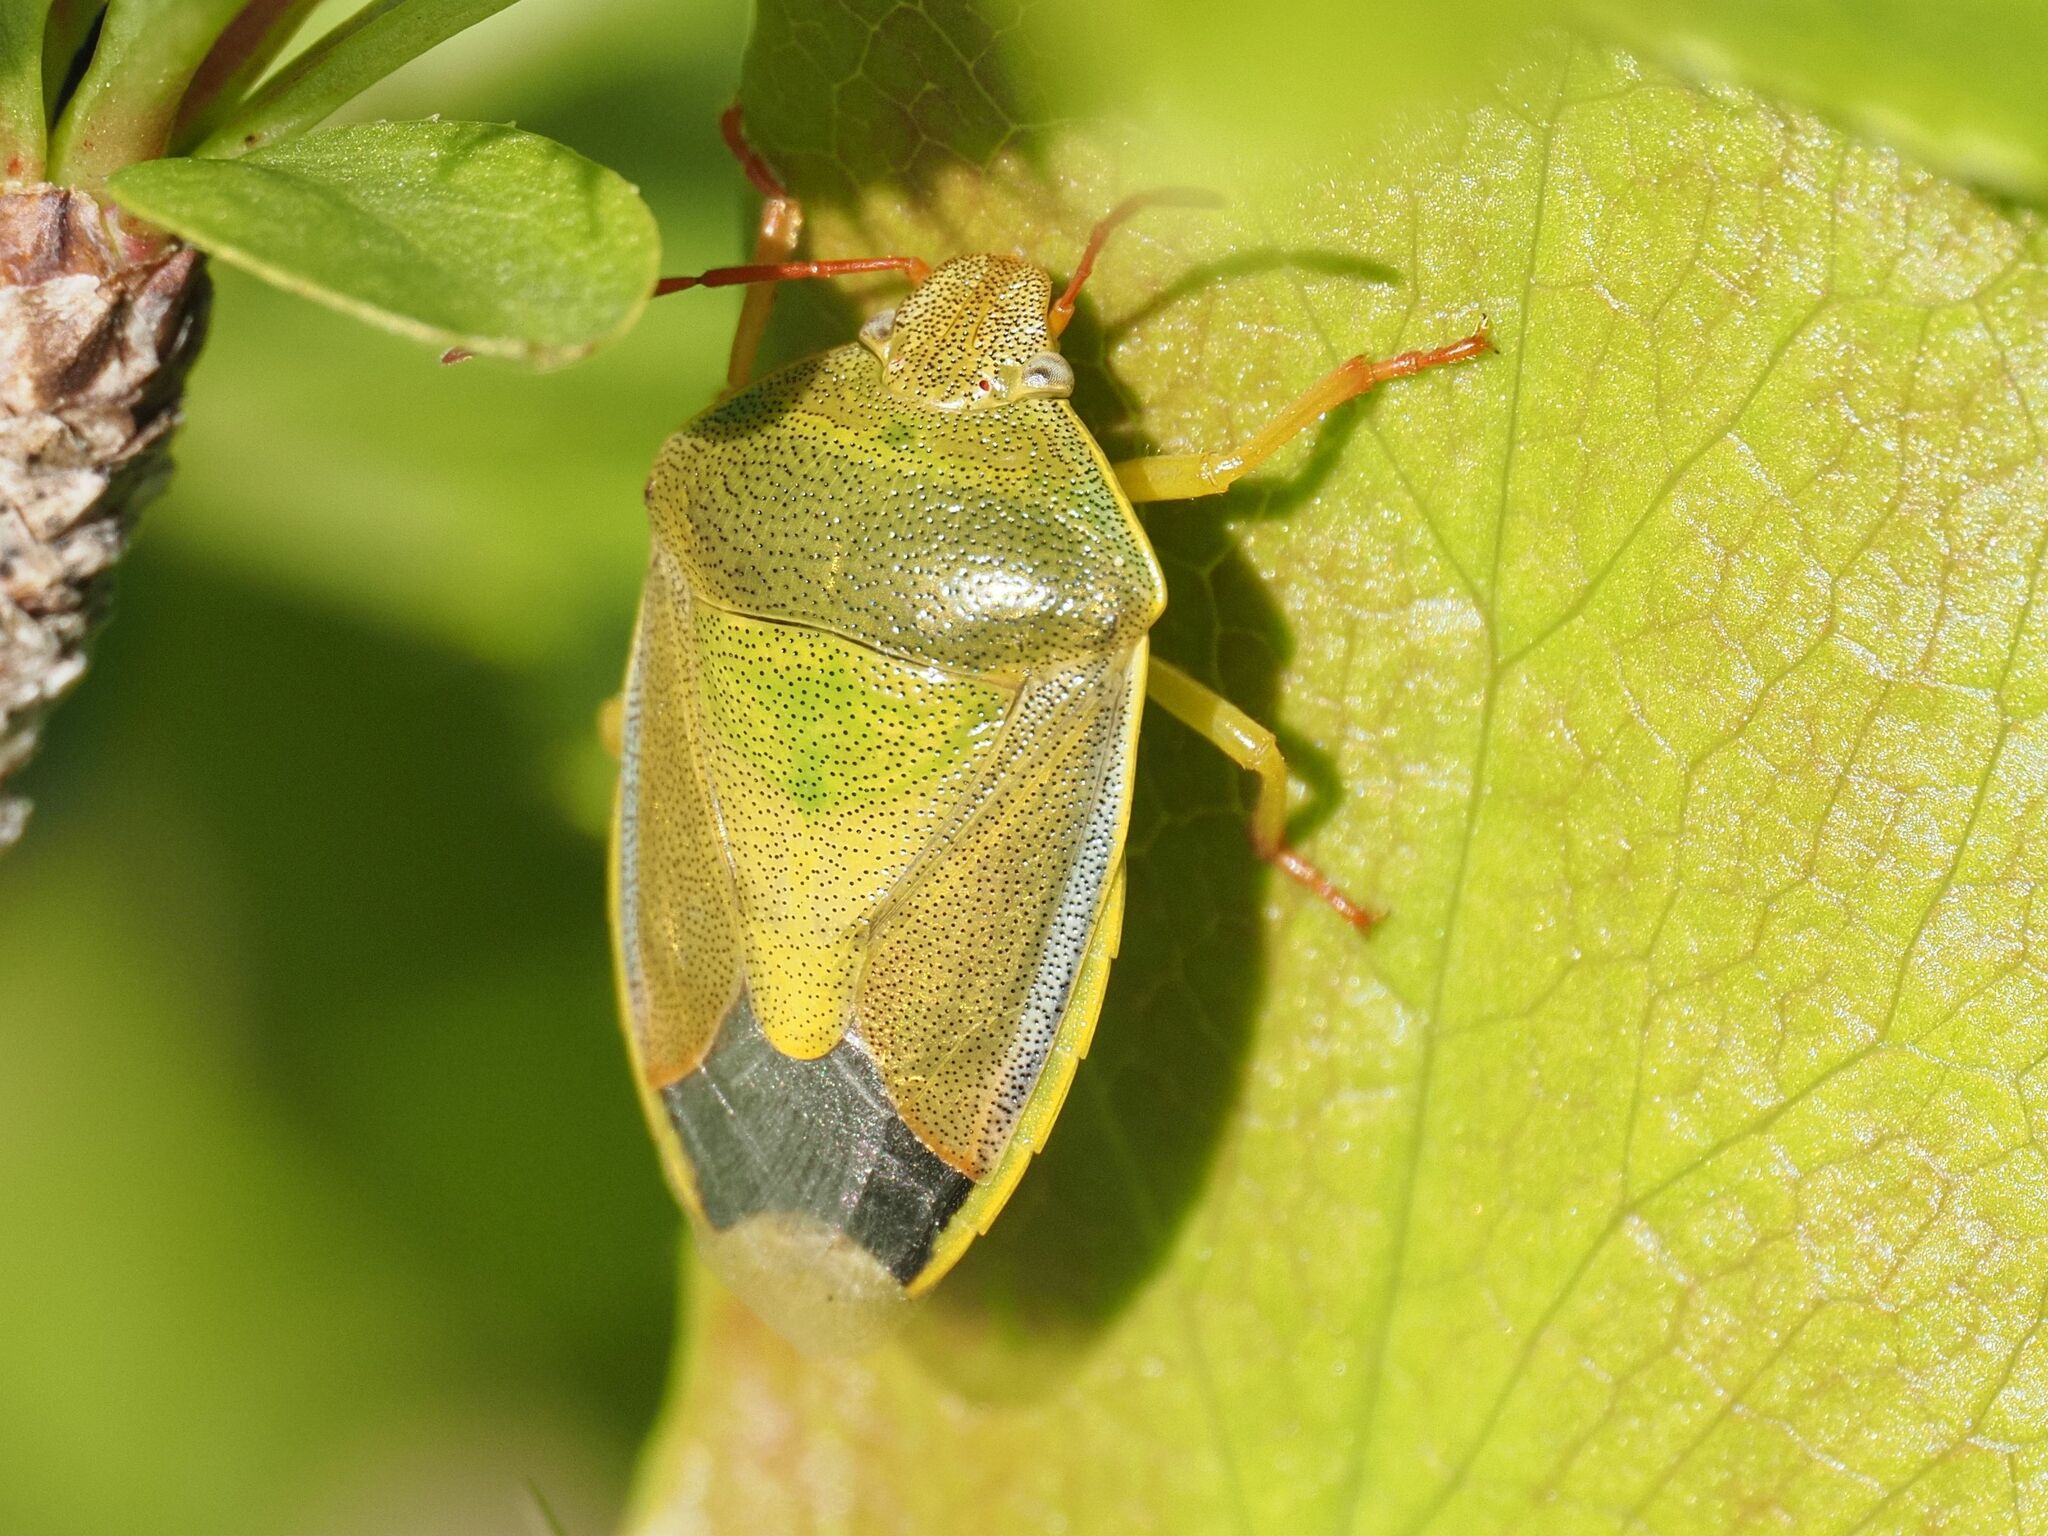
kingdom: Animalia
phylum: Arthropoda
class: Insecta
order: Hemiptera
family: Pentatomidae
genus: Piezodorus
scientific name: Piezodorus lituratus
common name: Stink bug
